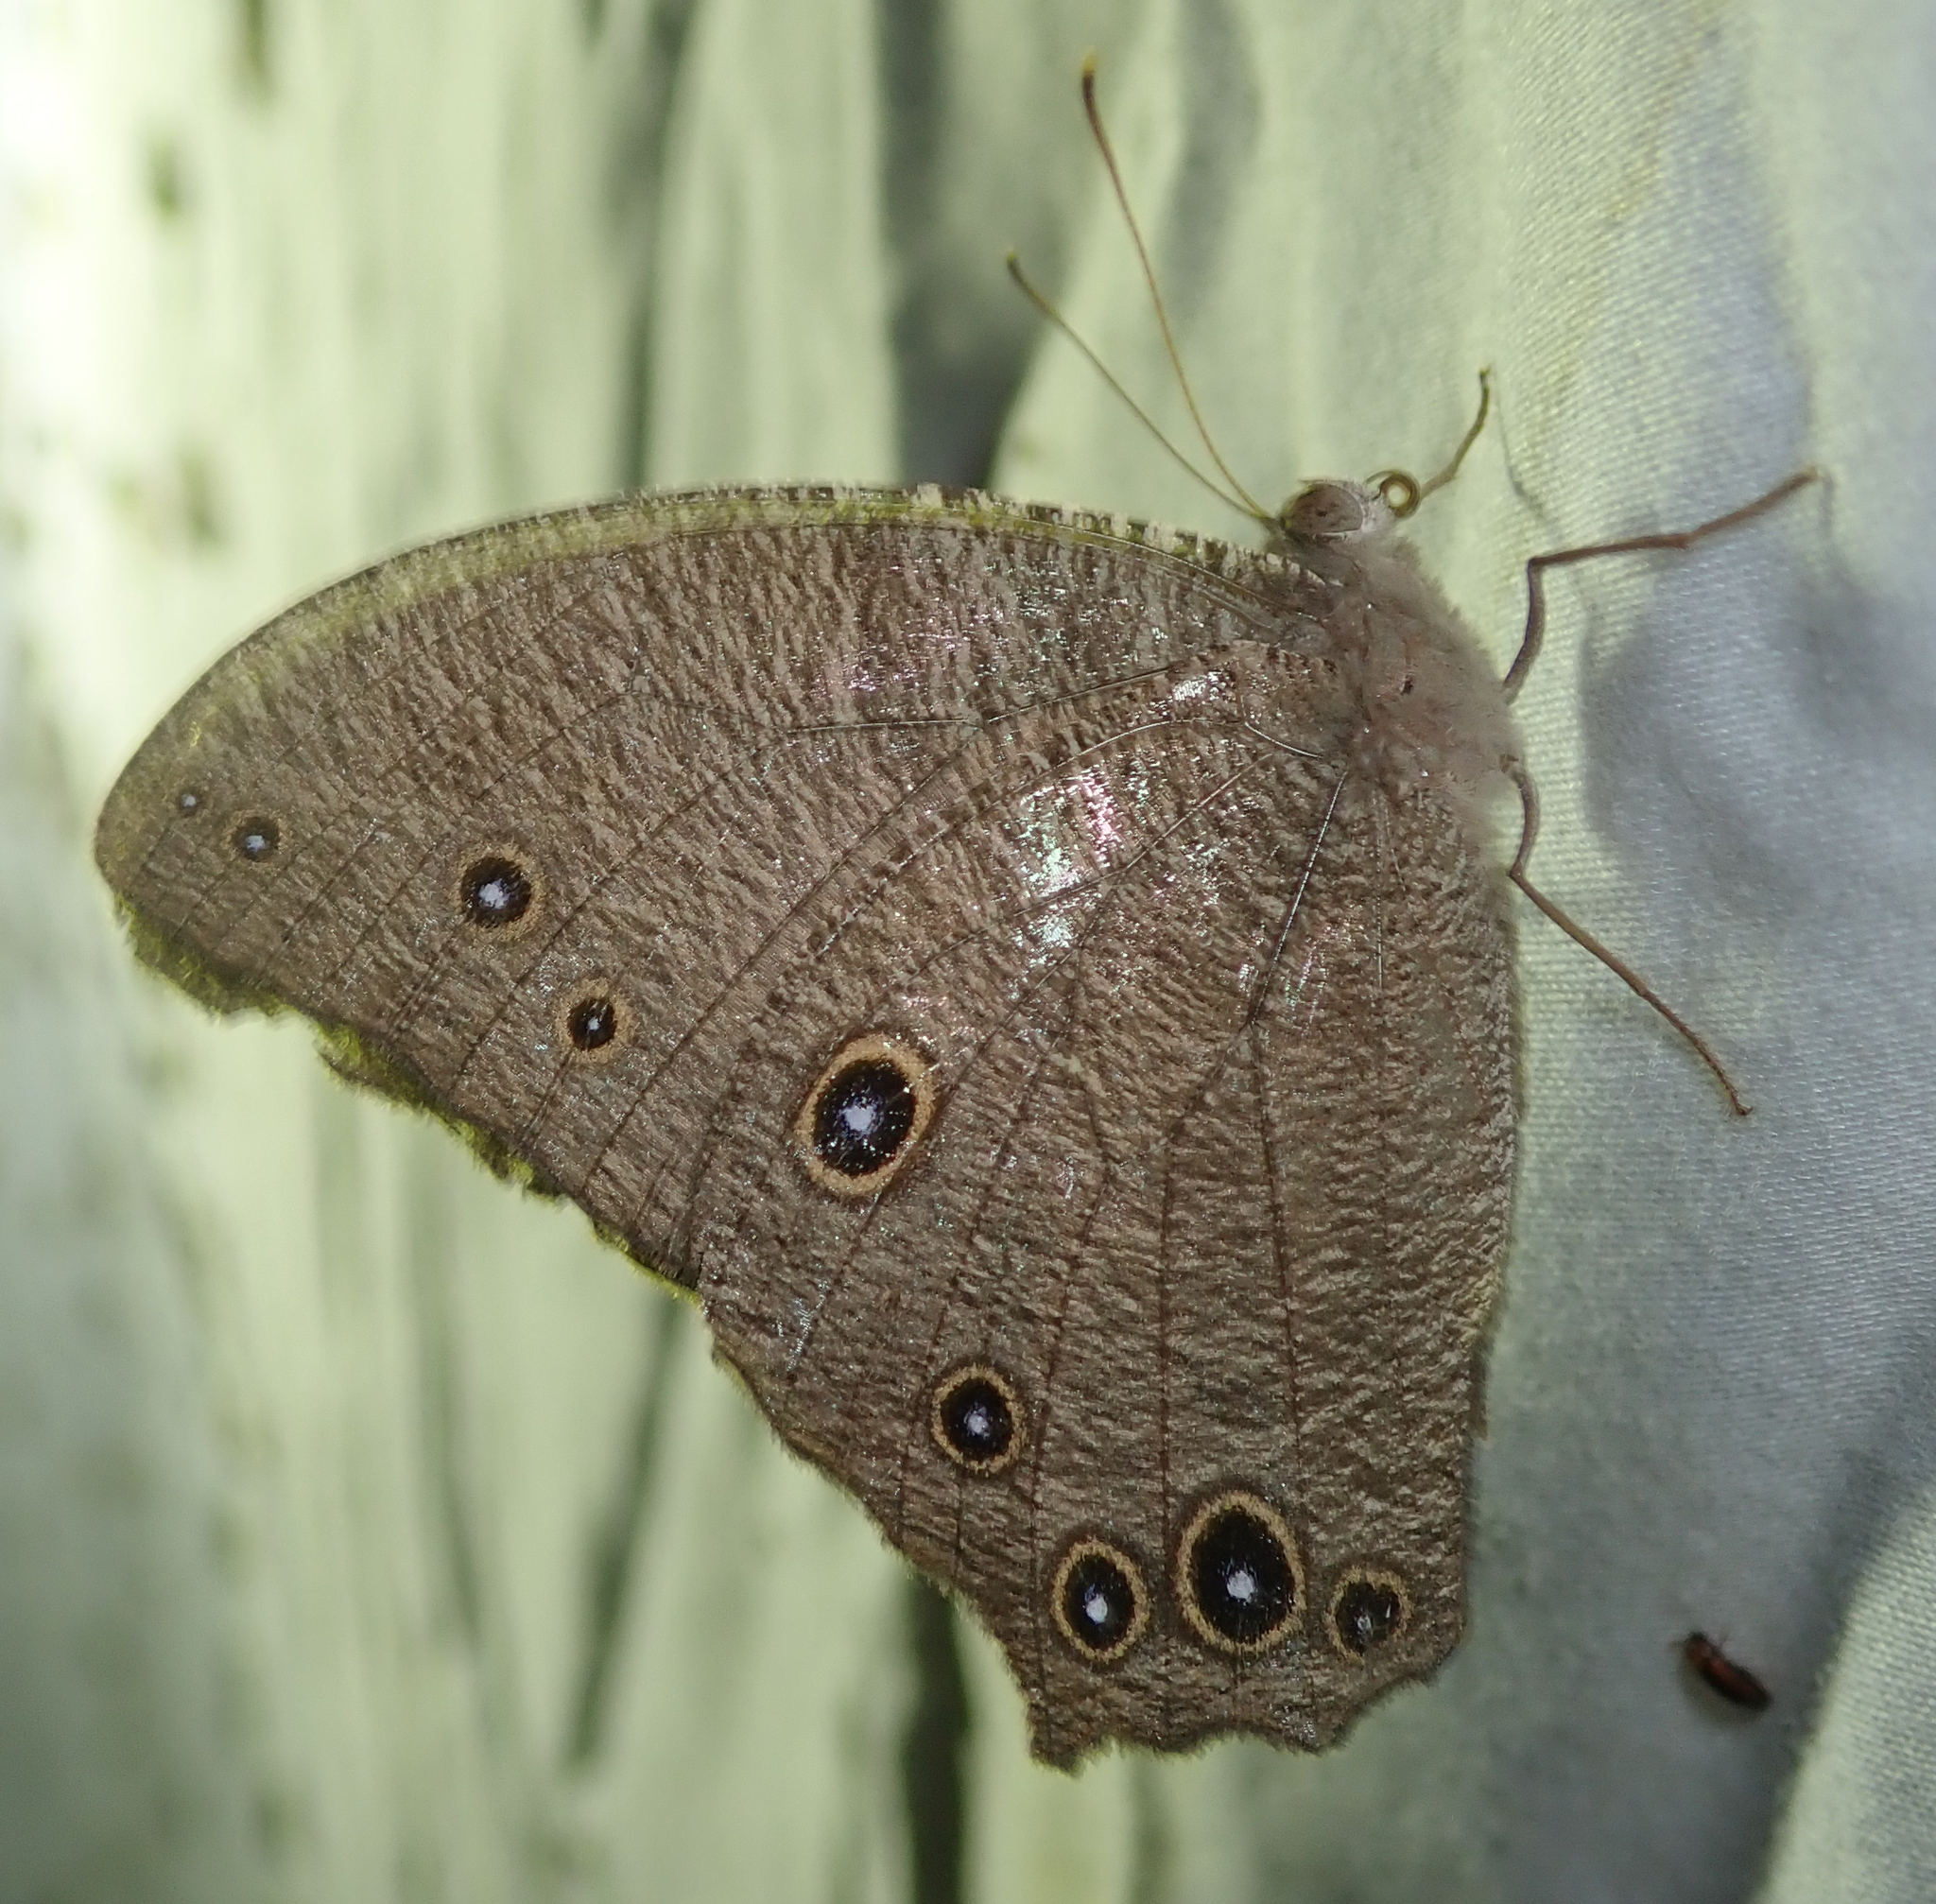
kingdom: Animalia
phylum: Arthropoda
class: Insecta
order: Lepidoptera
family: Nymphalidae
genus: Melanitis
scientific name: Melanitis leda
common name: Twilight brown
